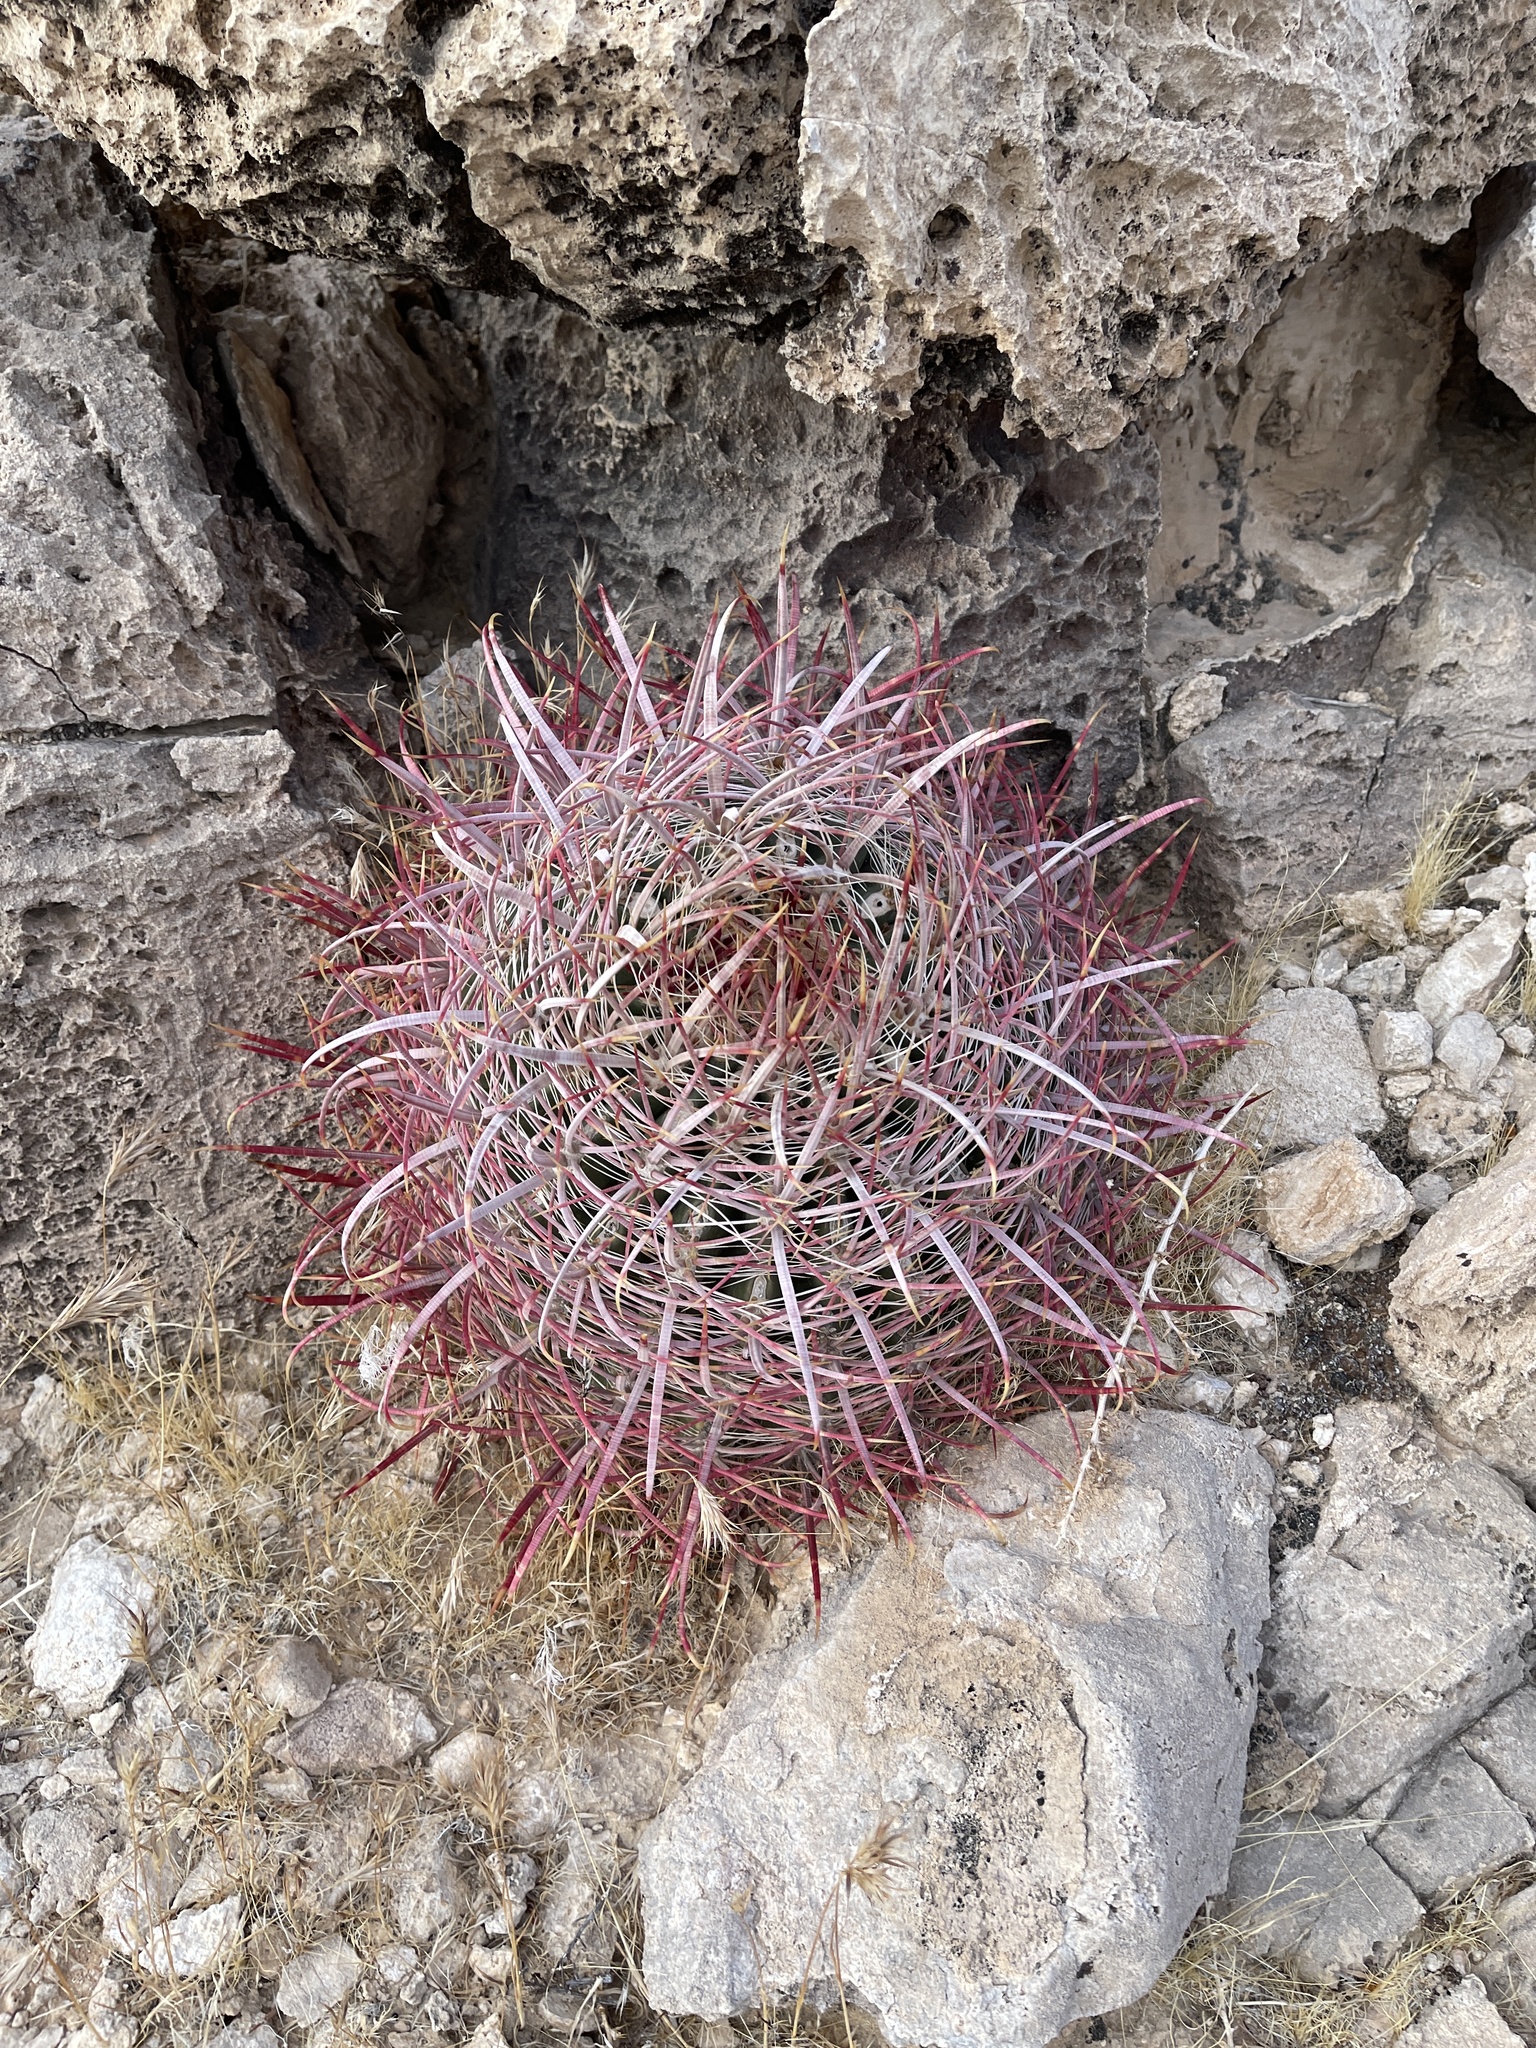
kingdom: Plantae
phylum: Tracheophyta
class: Magnoliopsida
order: Caryophyllales
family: Cactaceae
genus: Ferocactus
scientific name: Ferocactus cylindraceus
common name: California barrel cactus
